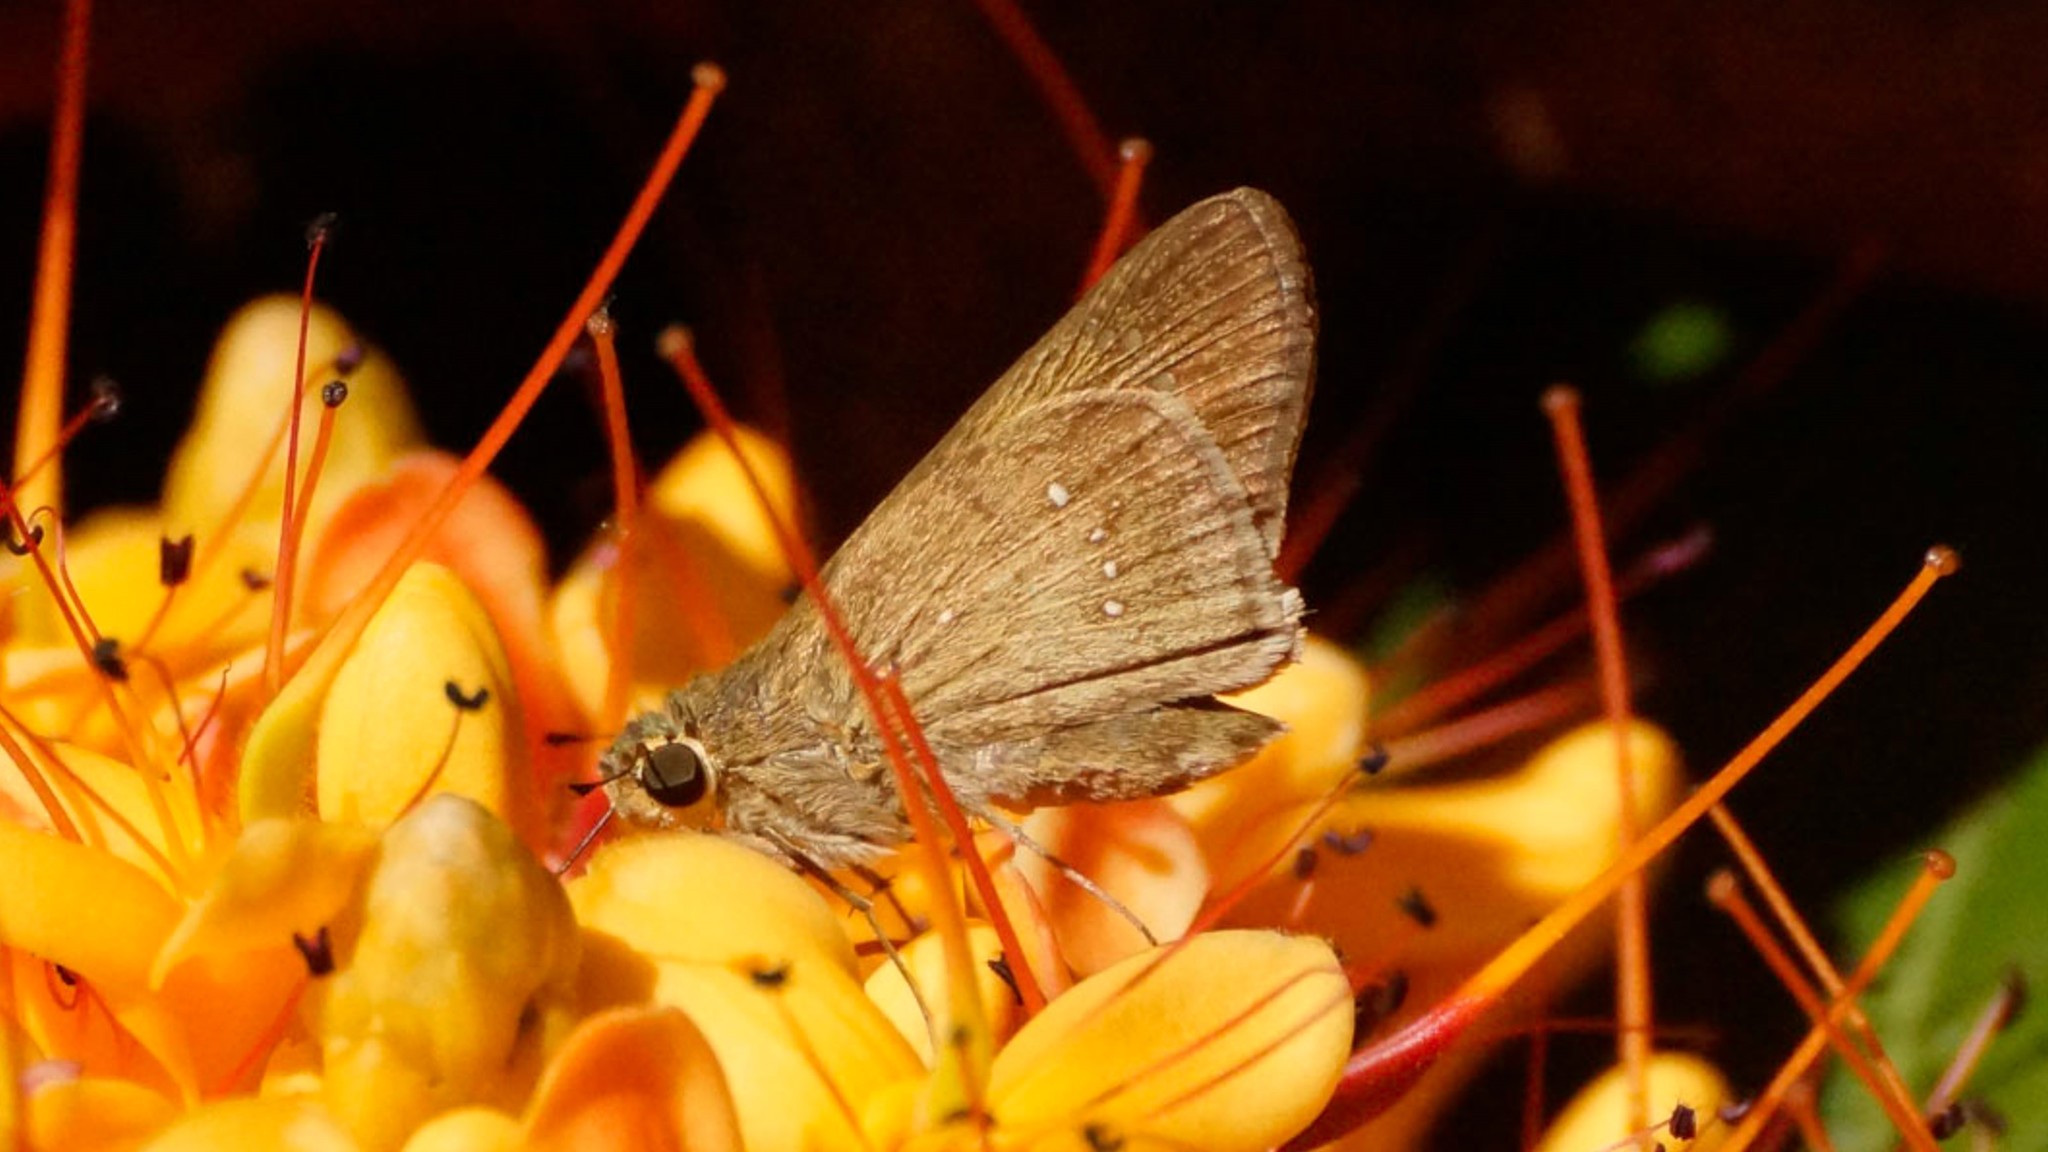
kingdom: Animalia
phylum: Arthropoda
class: Insecta
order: Lepidoptera
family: Hesperiidae
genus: Pelopidas
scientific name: Pelopidas lyelli
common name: Lyell's swift
